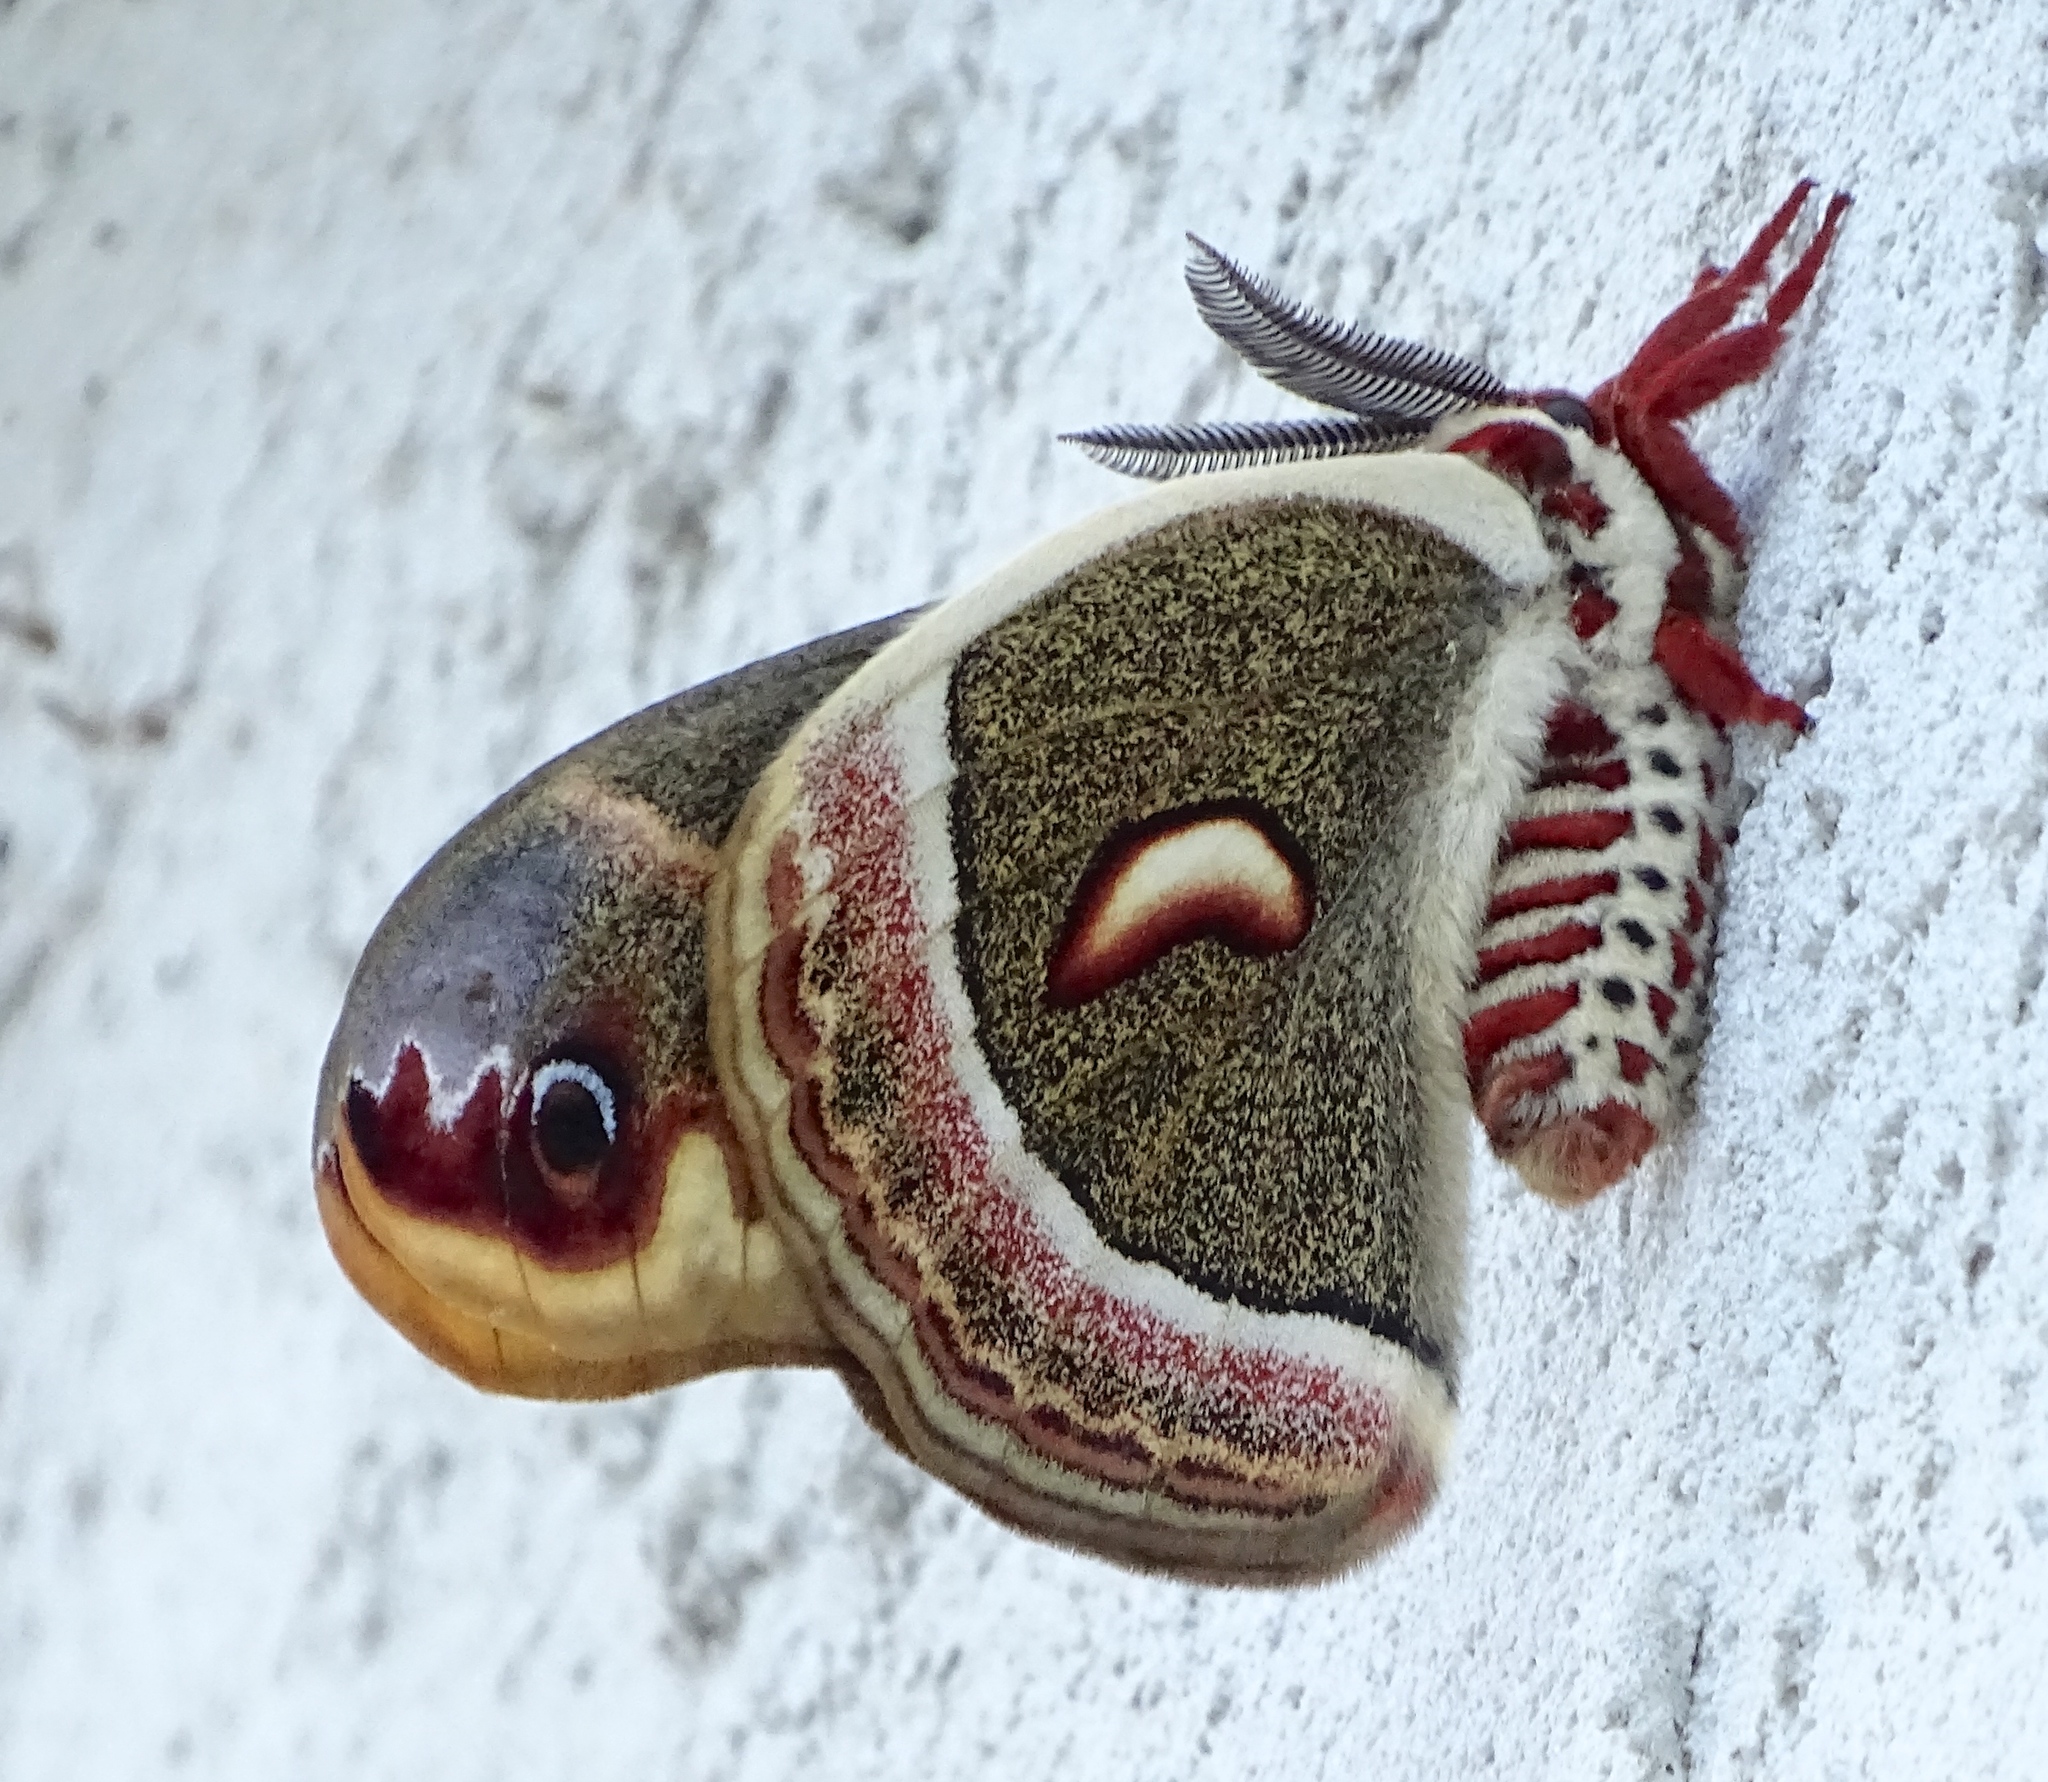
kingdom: Animalia
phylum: Arthropoda
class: Insecta
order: Lepidoptera
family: Saturniidae
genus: Hyalophora
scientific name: Hyalophora cecropia
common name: Cecropia silkmoth
